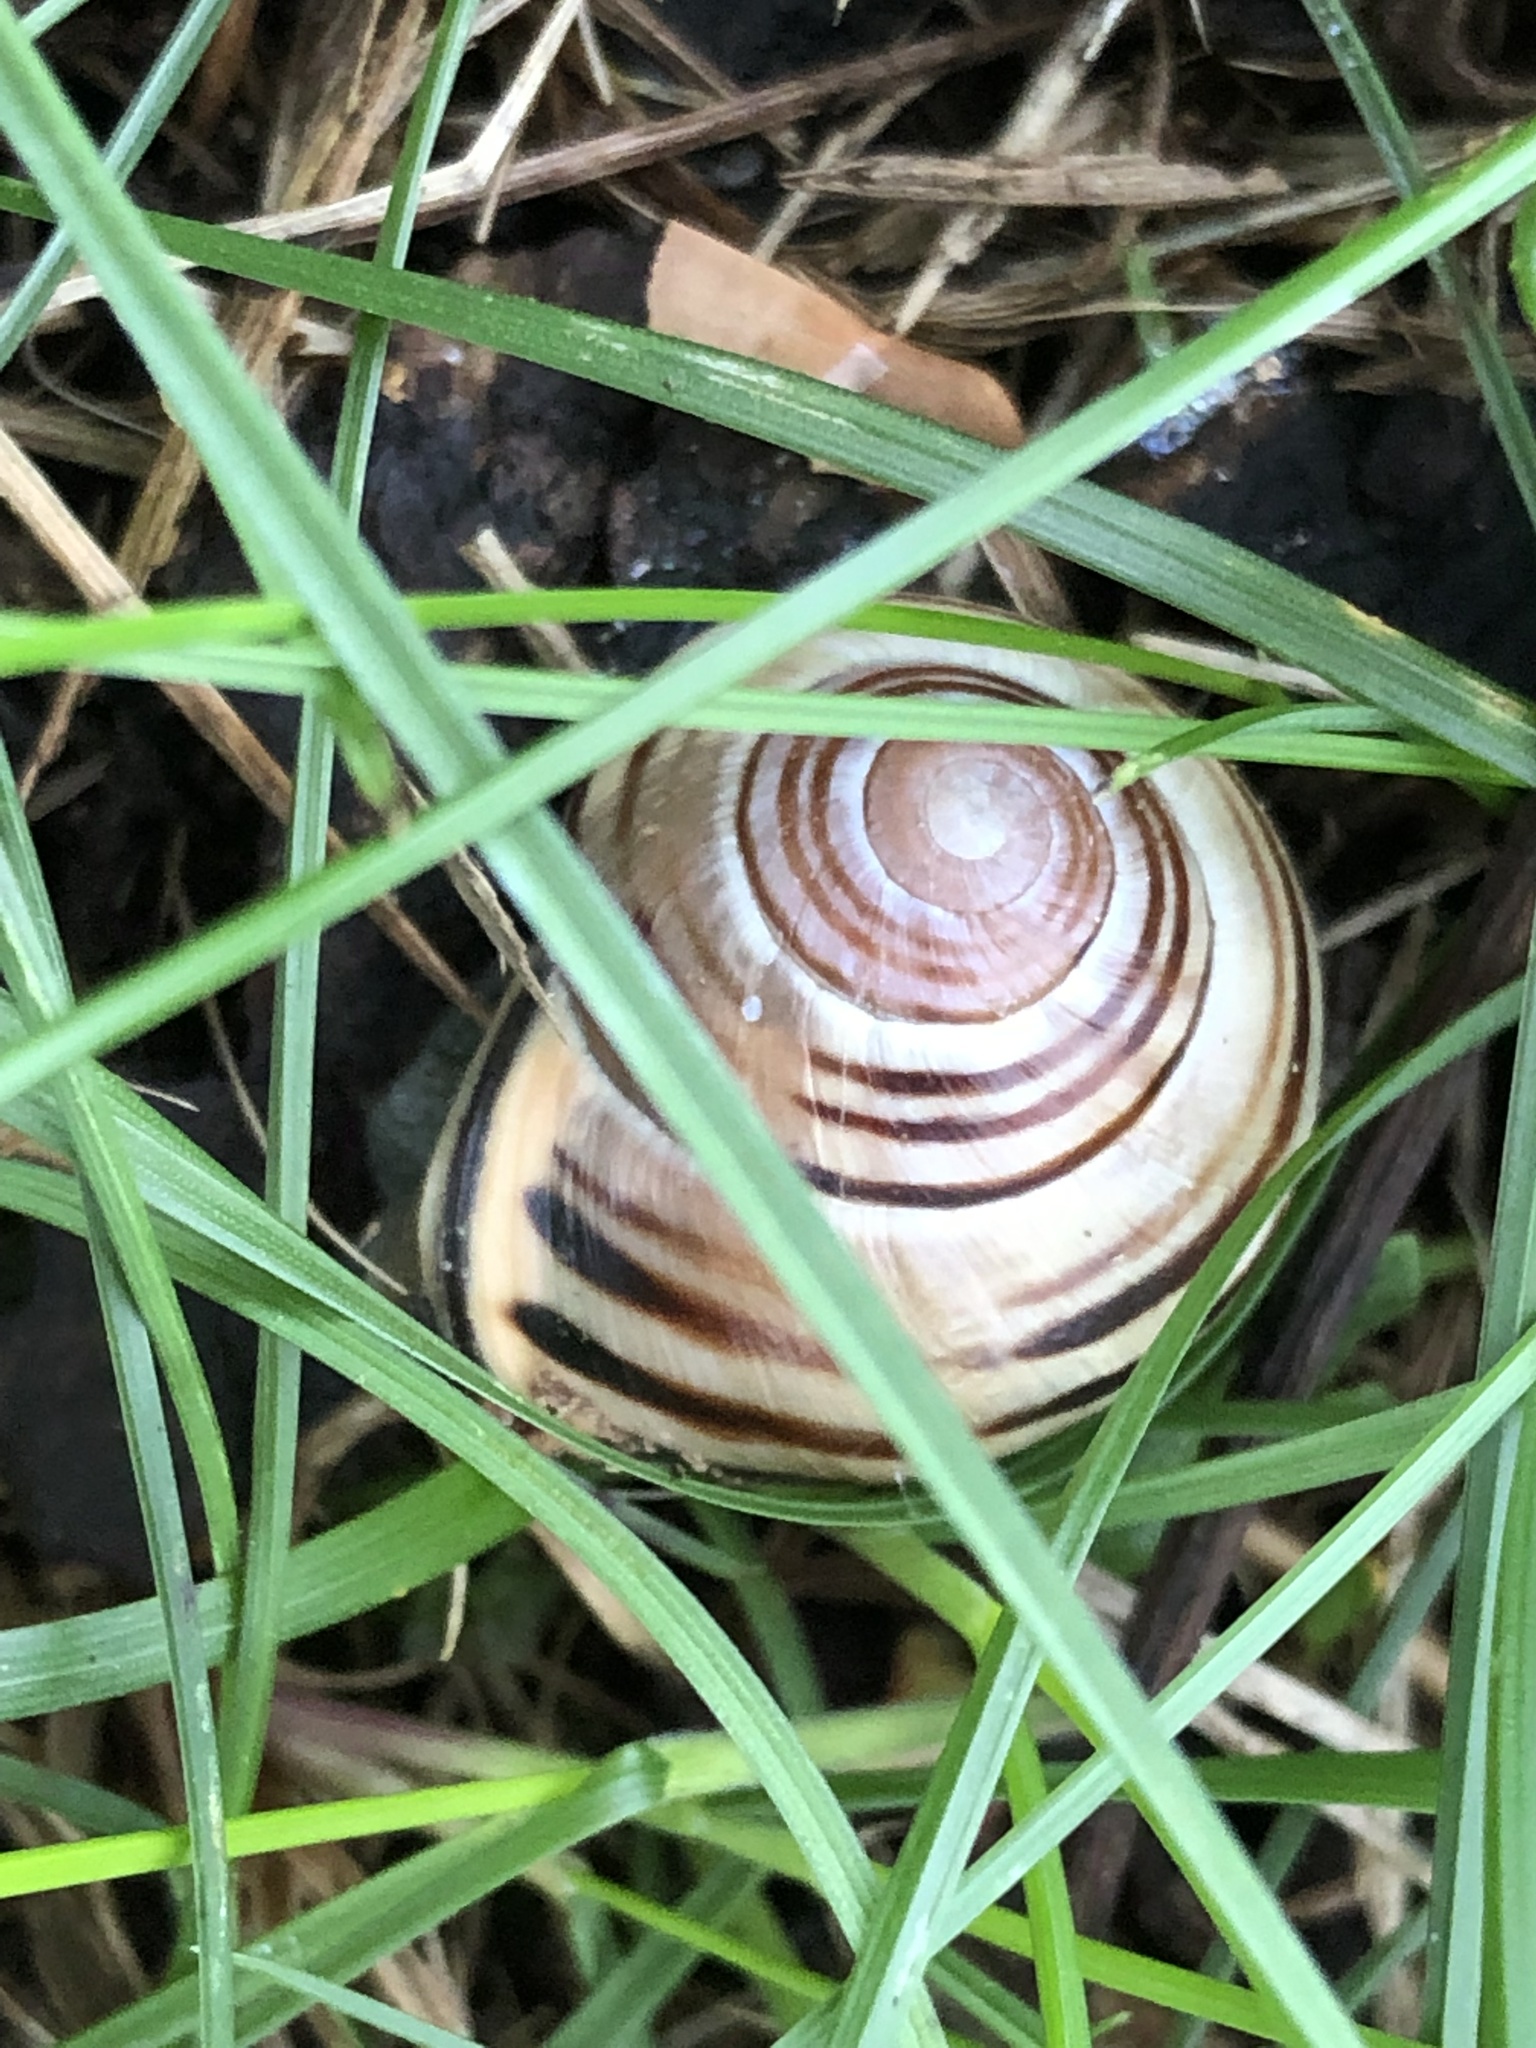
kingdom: Animalia
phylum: Mollusca
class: Gastropoda
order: Stylommatophora
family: Helicidae
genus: Cepaea
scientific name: Cepaea nemoralis
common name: Grovesnail
